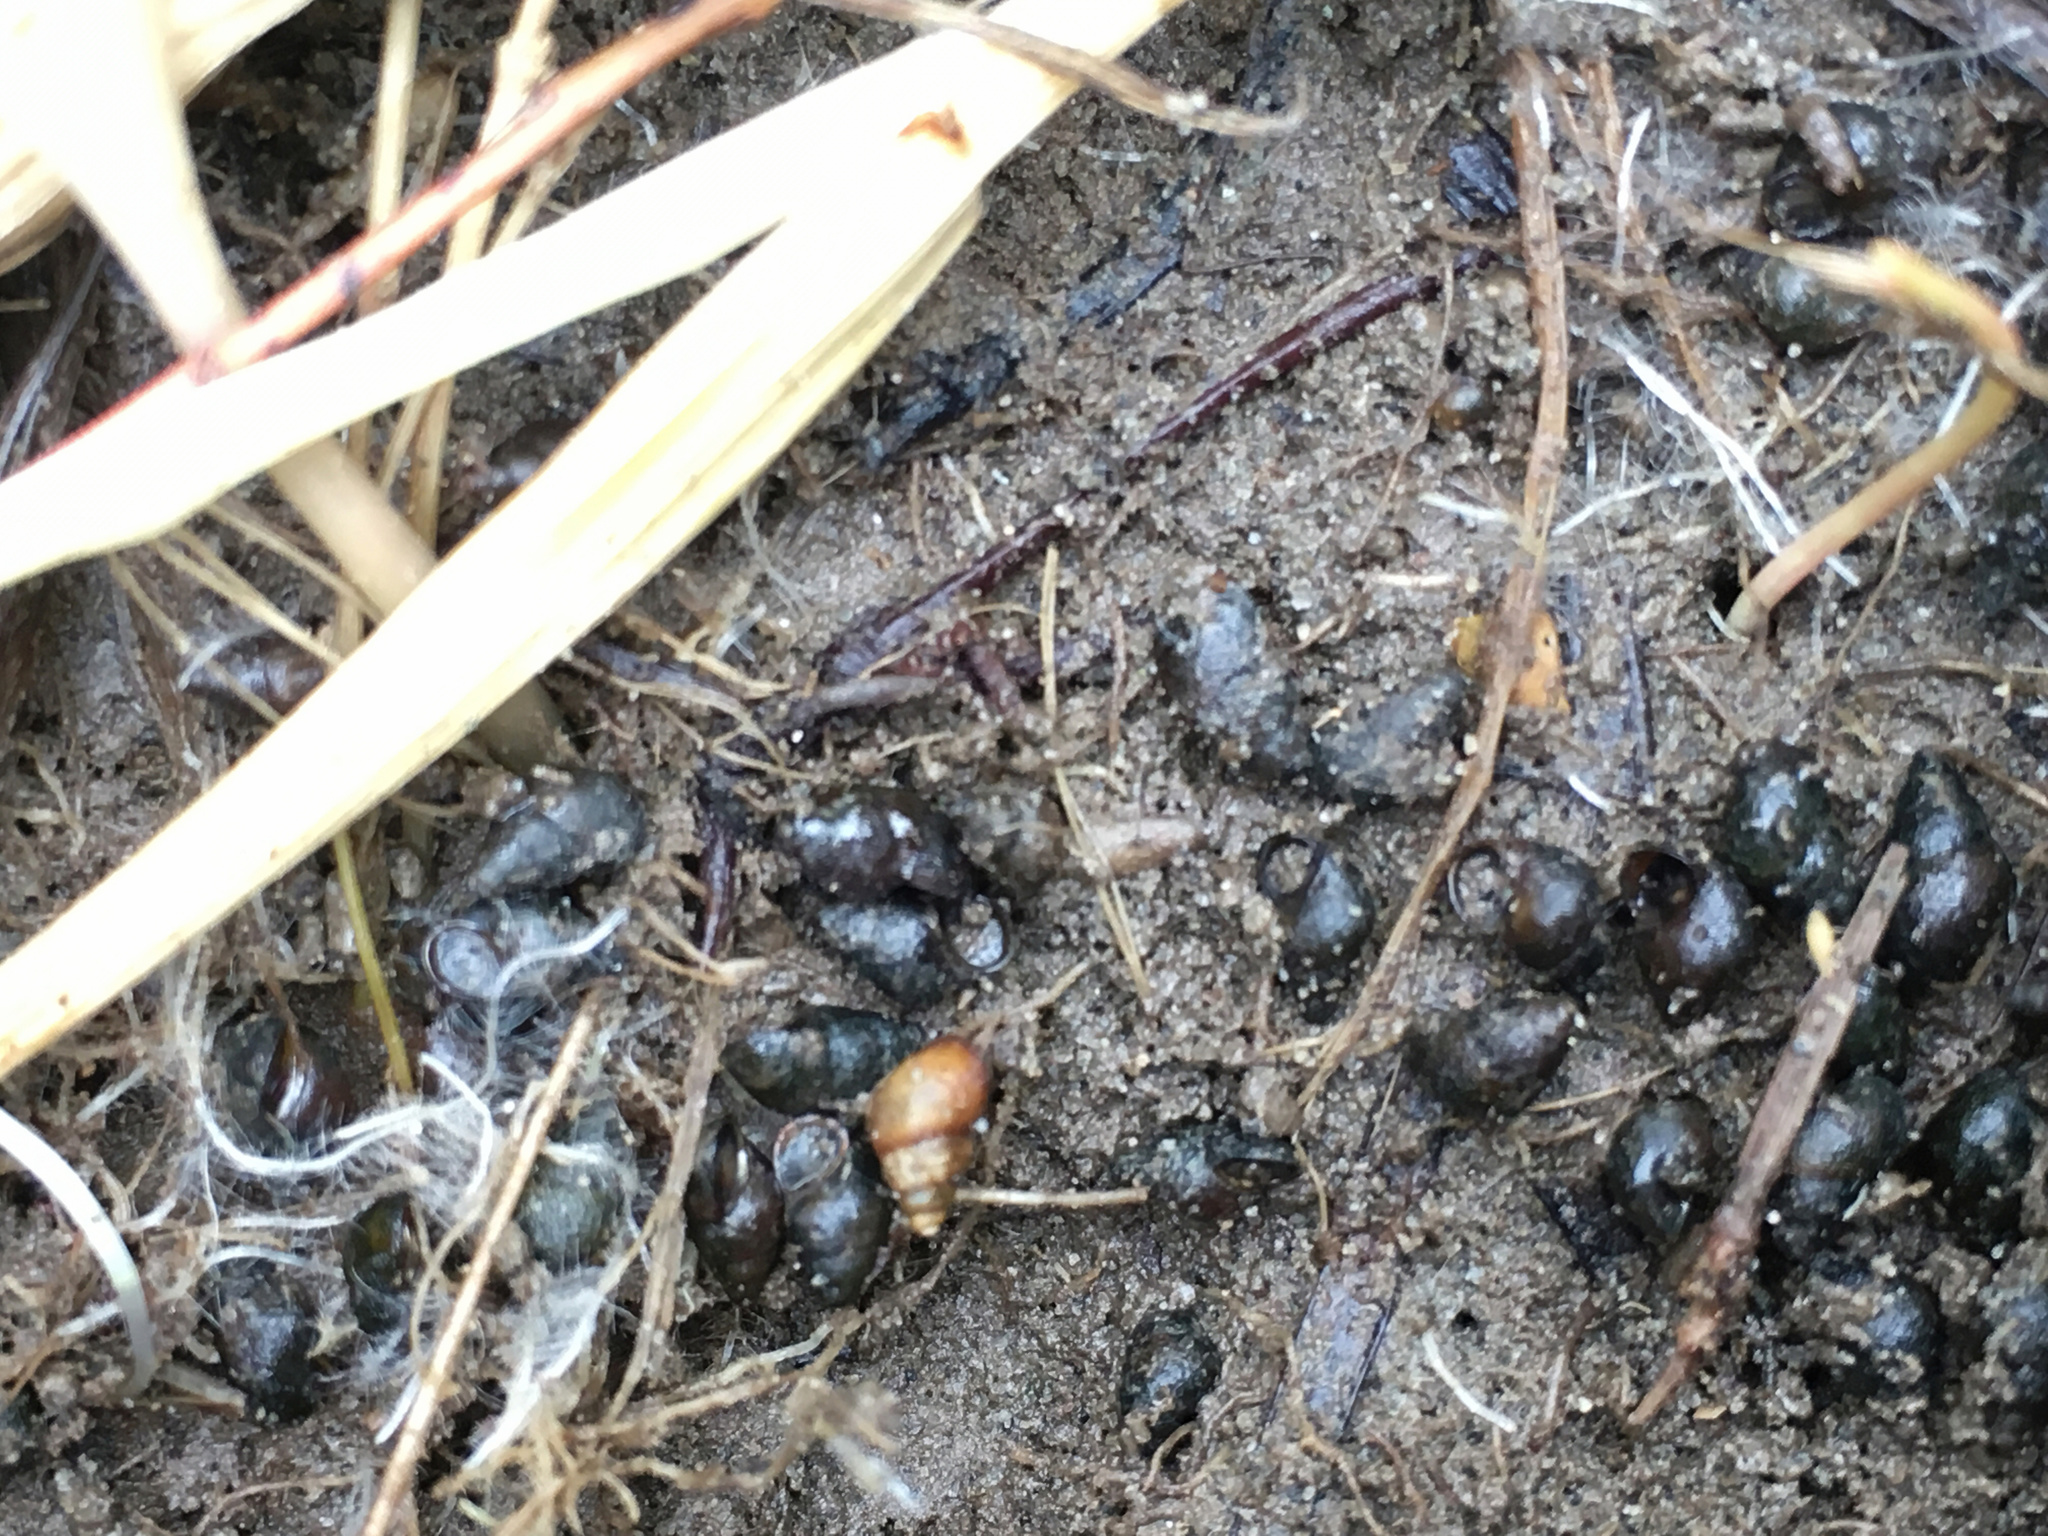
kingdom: Animalia
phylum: Mollusca
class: Gastropoda
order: Littorinimorpha
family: Tateidae
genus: Potamopyrgus
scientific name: Potamopyrgus estuarinus
